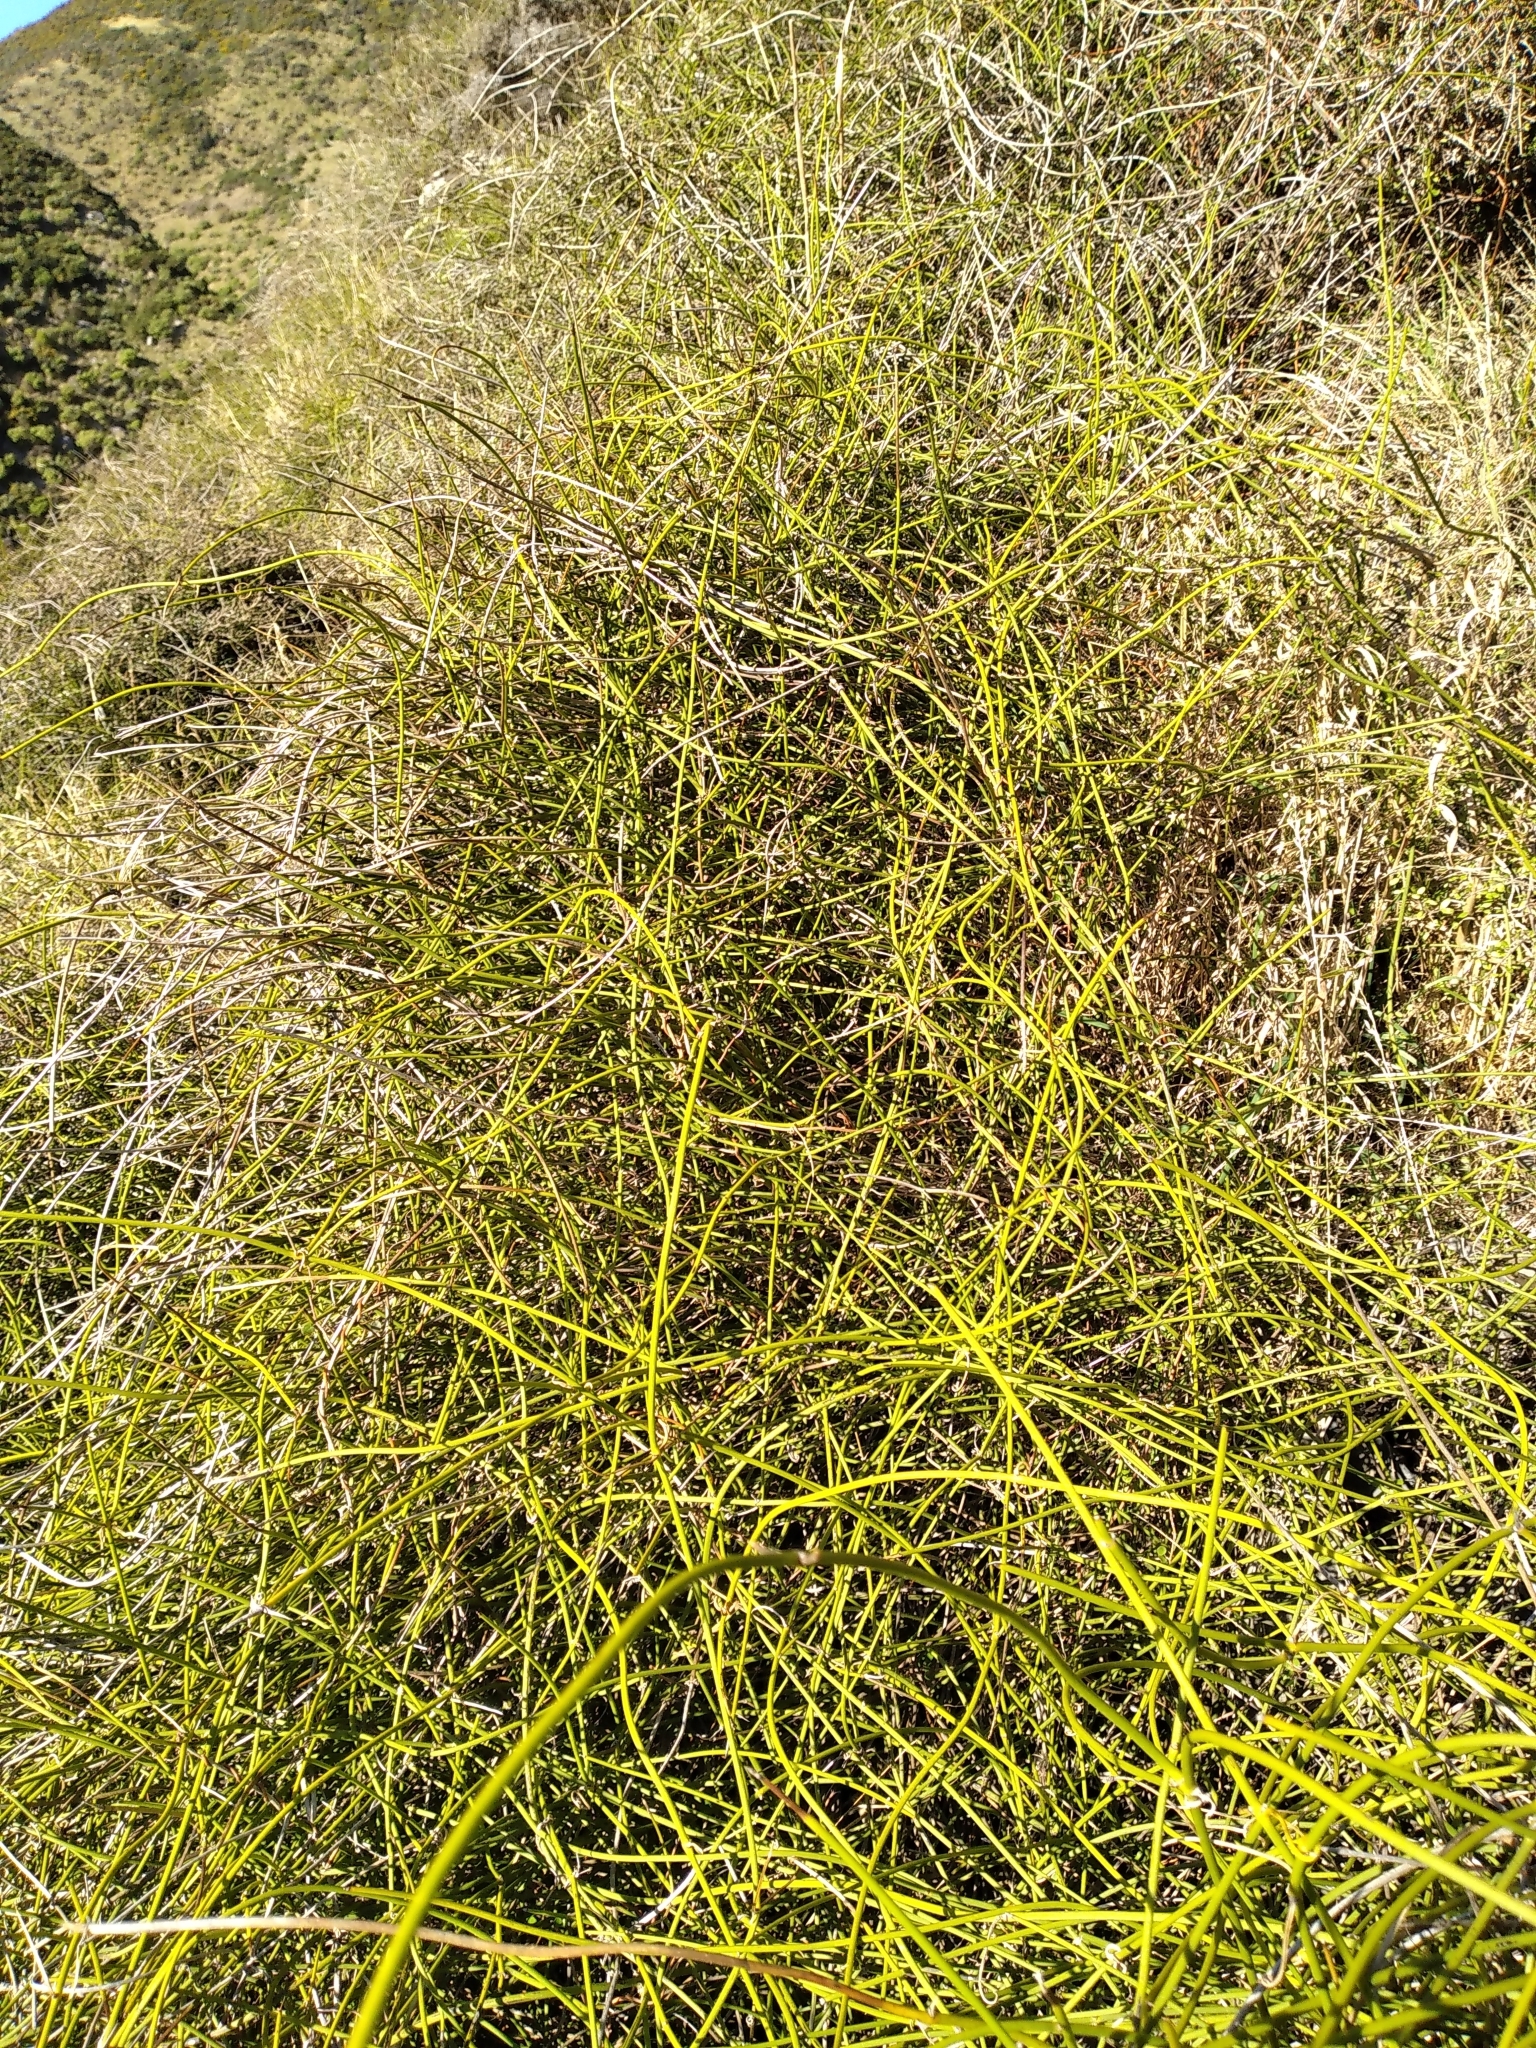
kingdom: Plantae
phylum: Tracheophyta
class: Magnoliopsida
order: Ranunculales
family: Ranunculaceae
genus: Clematis
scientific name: Clematis afoliata
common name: Rush-stem clematis
